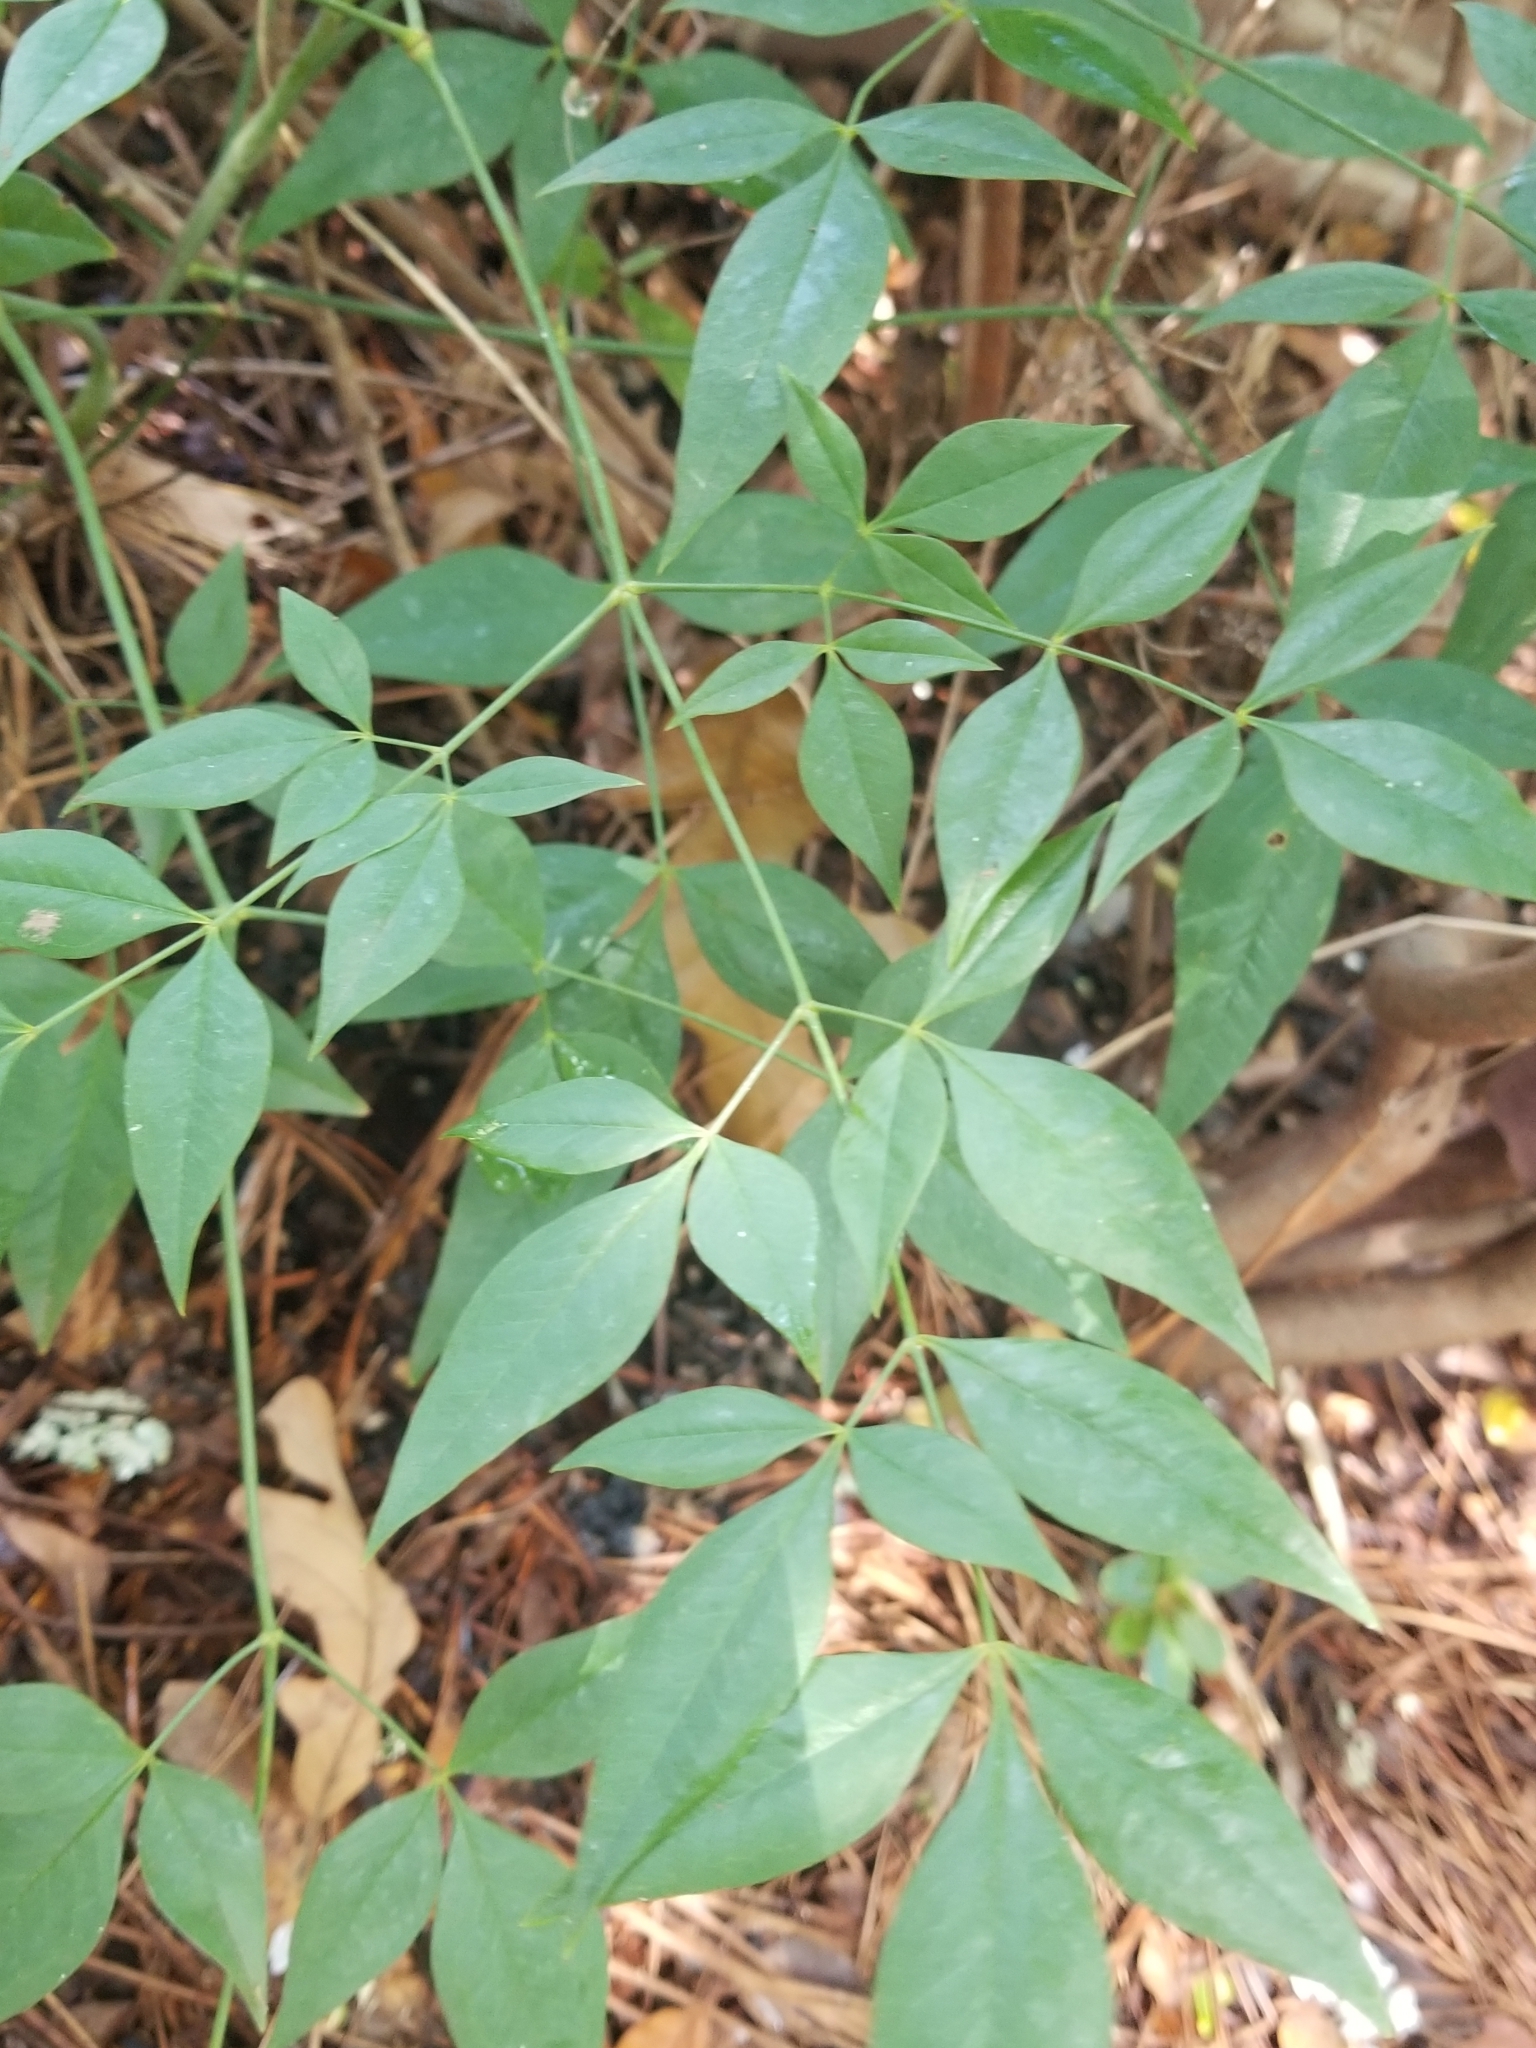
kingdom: Plantae
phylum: Tracheophyta
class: Magnoliopsida
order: Ranunculales
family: Berberidaceae
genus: Nandina
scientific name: Nandina domestica
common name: Sacred bamboo
